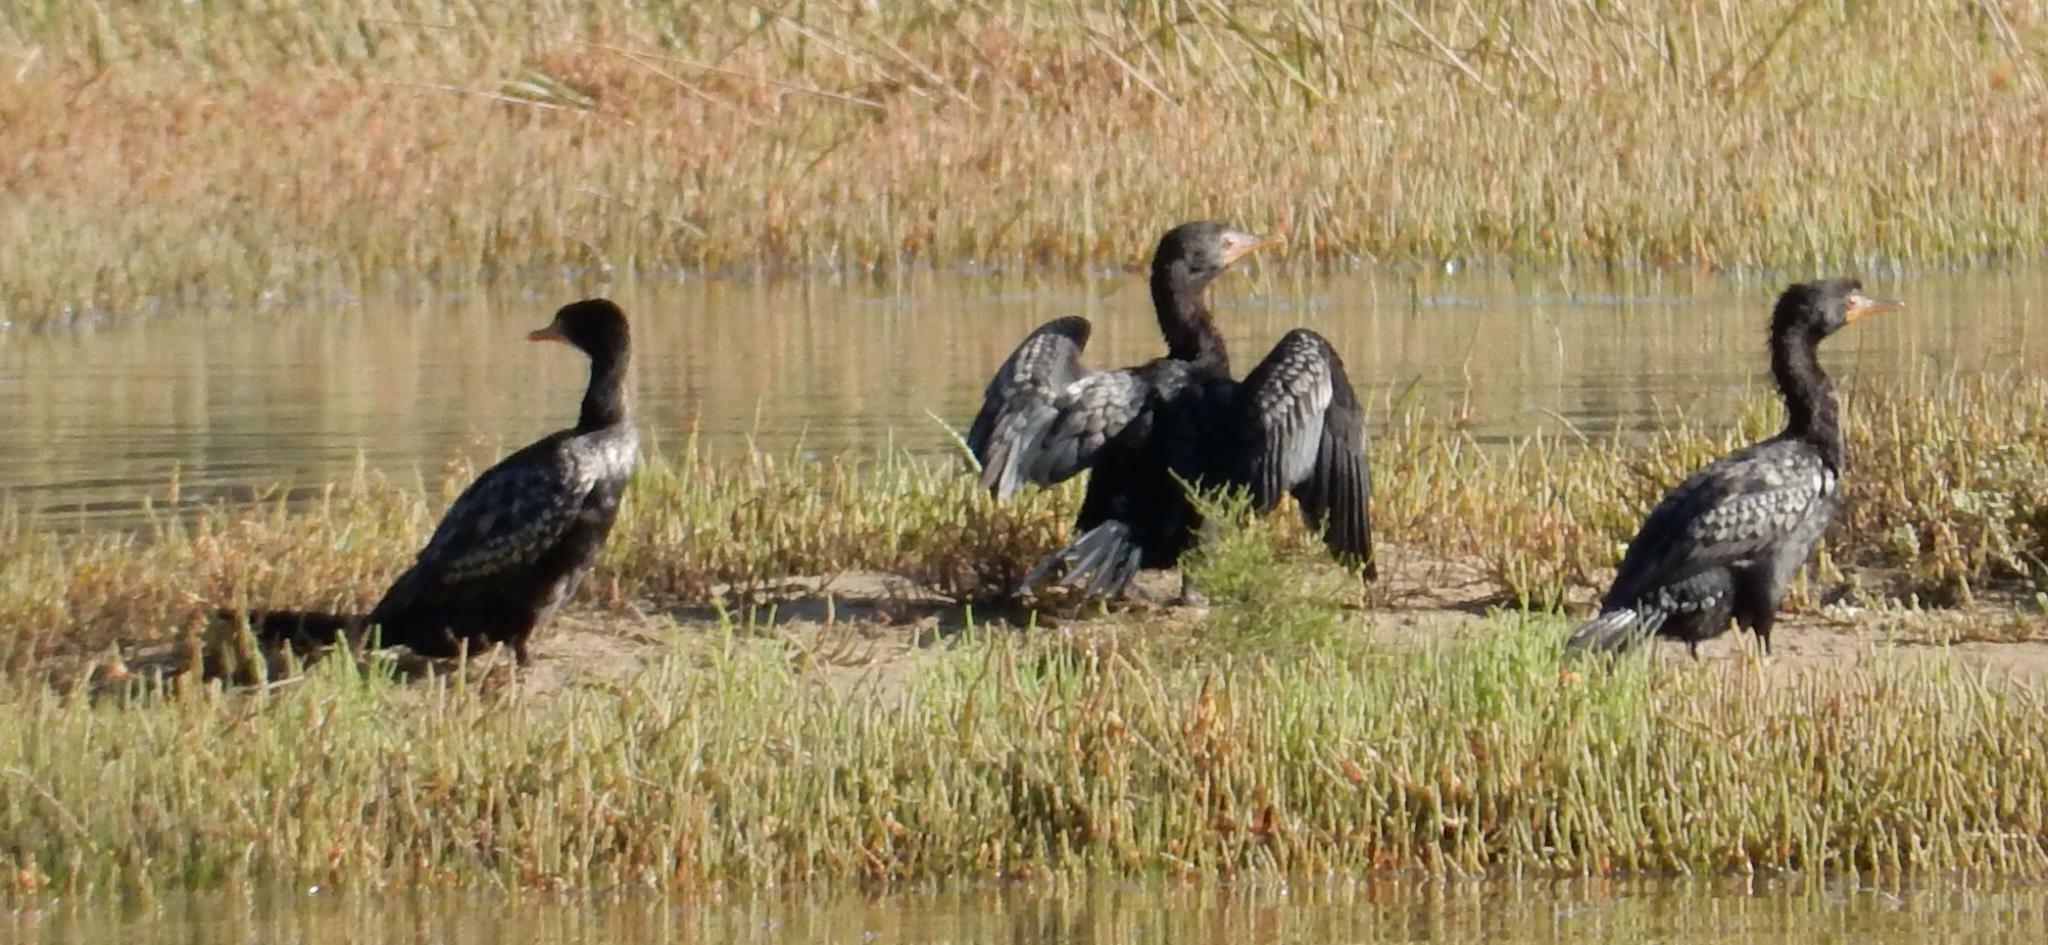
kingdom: Animalia
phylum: Chordata
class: Aves
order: Suliformes
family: Phalacrocoracidae
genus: Microcarbo
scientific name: Microcarbo africanus
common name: Long-tailed cormorant
